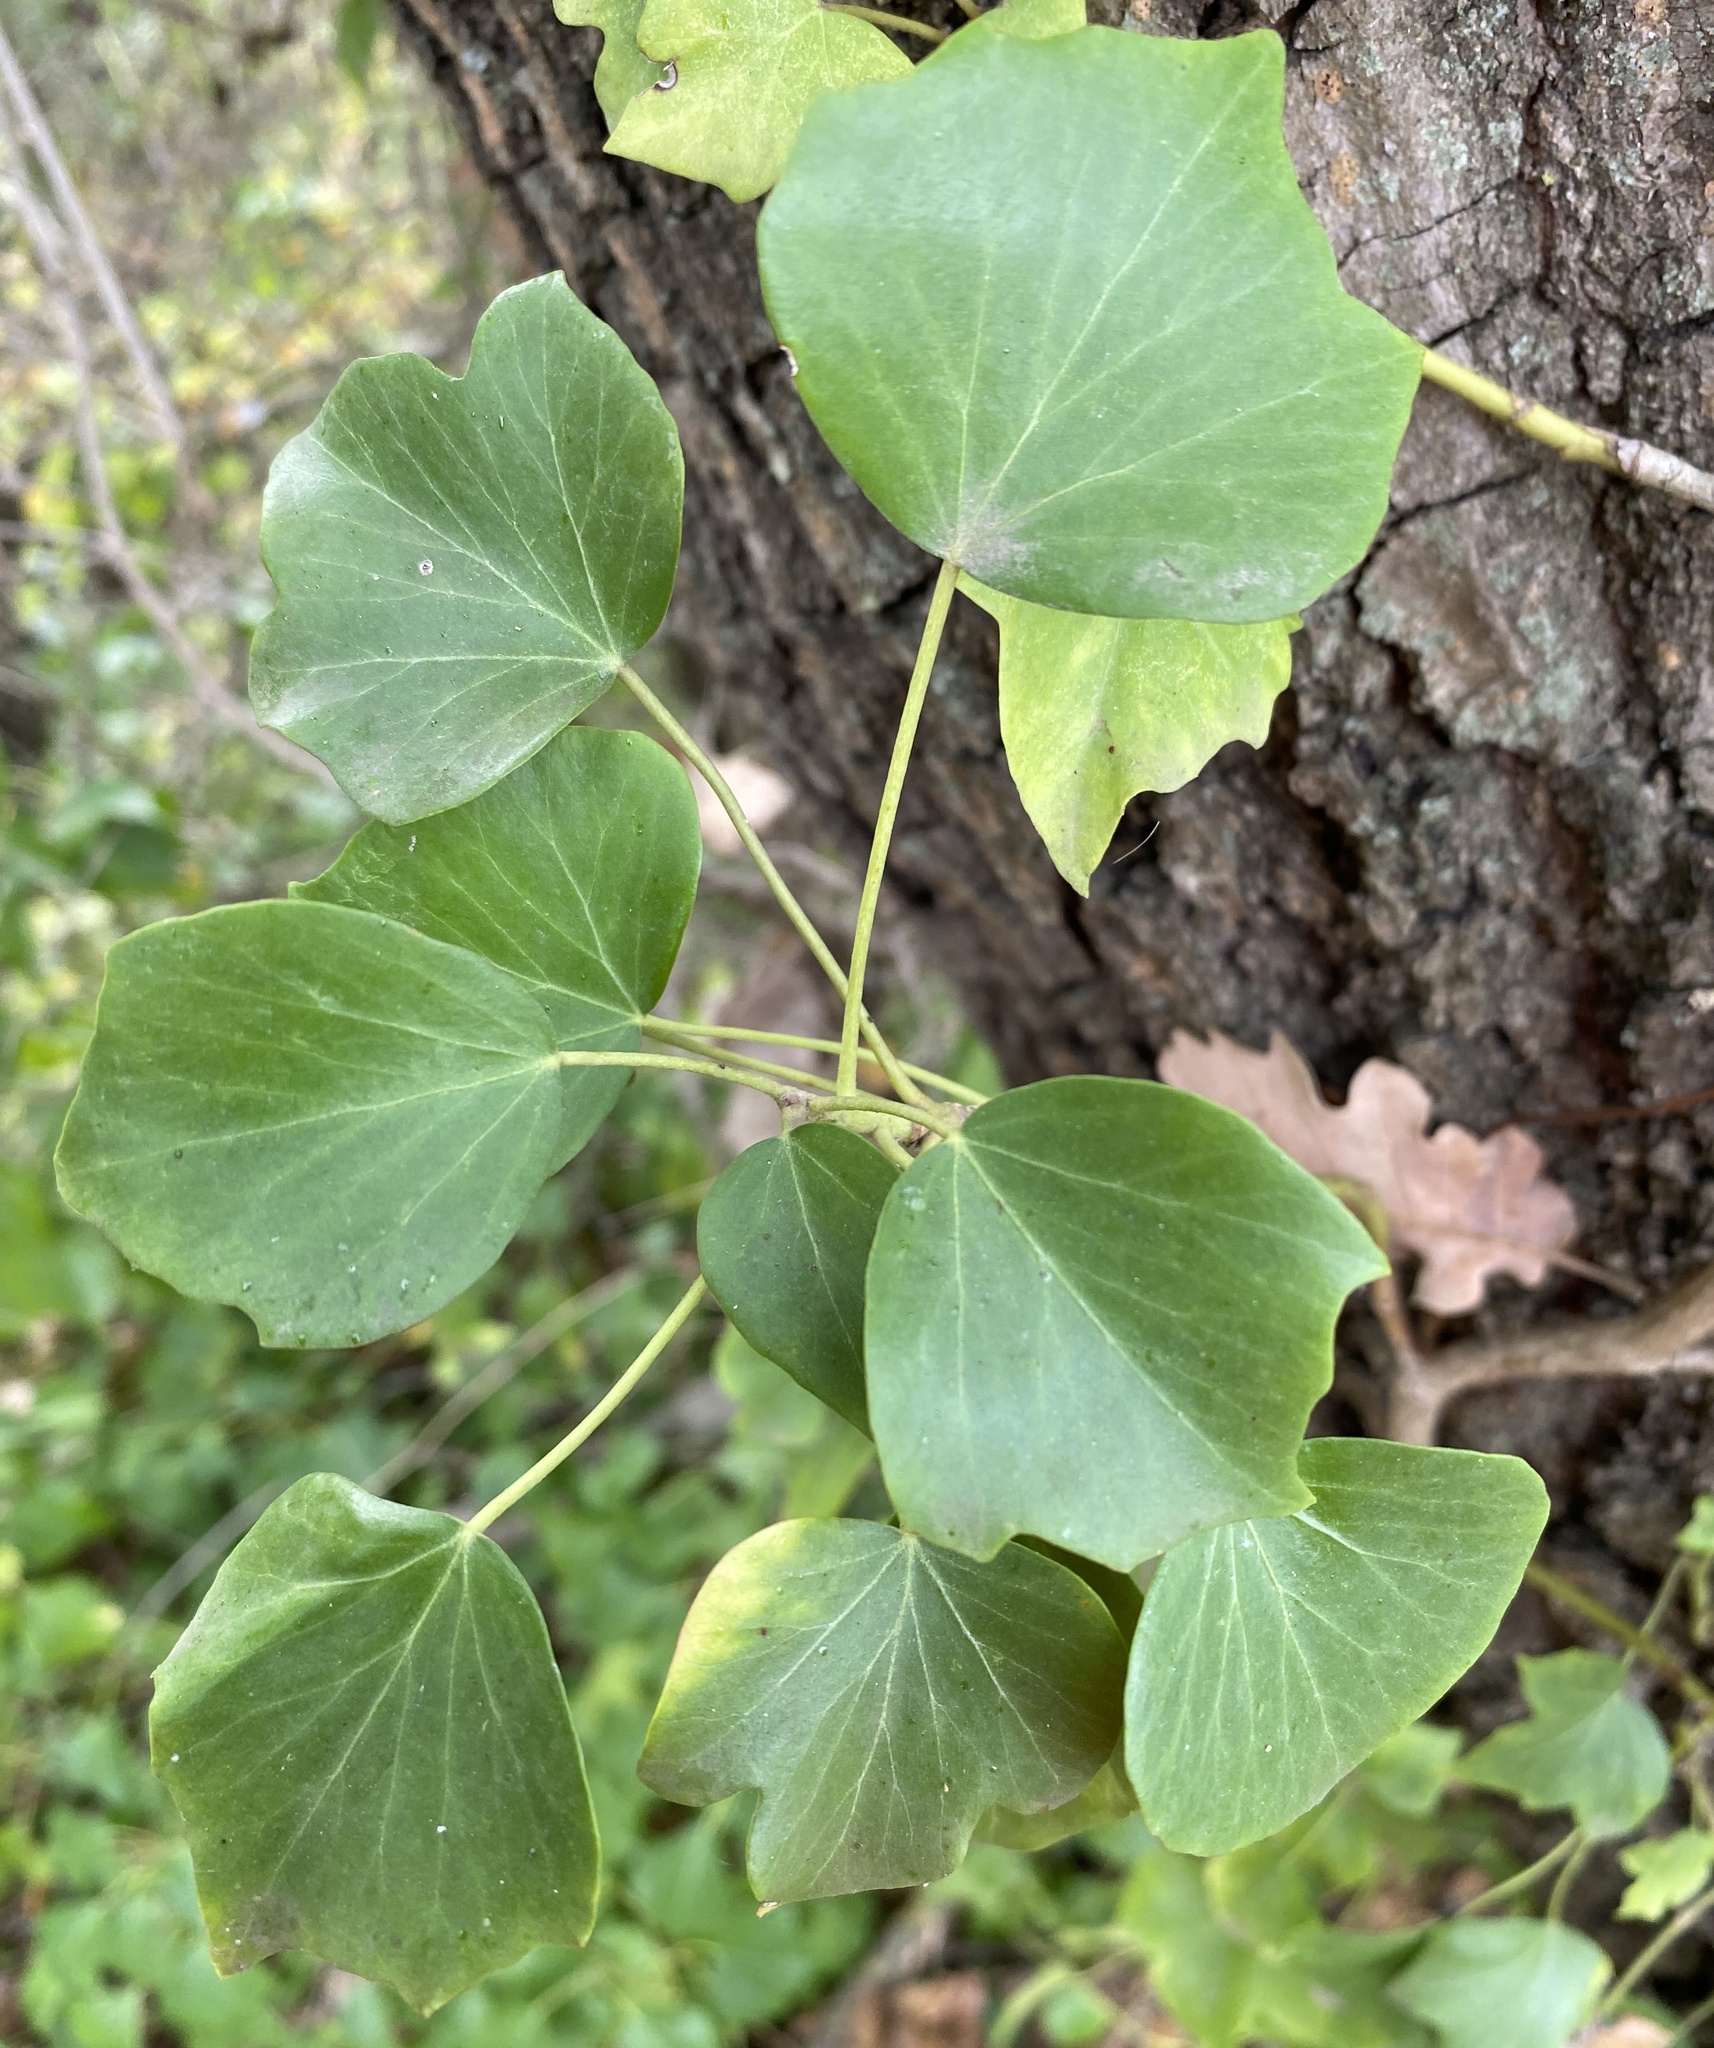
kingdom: Plantae
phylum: Tracheophyta
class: Magnoliopsida
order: Apiales
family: Araliaceae
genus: Hedera
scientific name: Hedera helix
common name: Ivy
